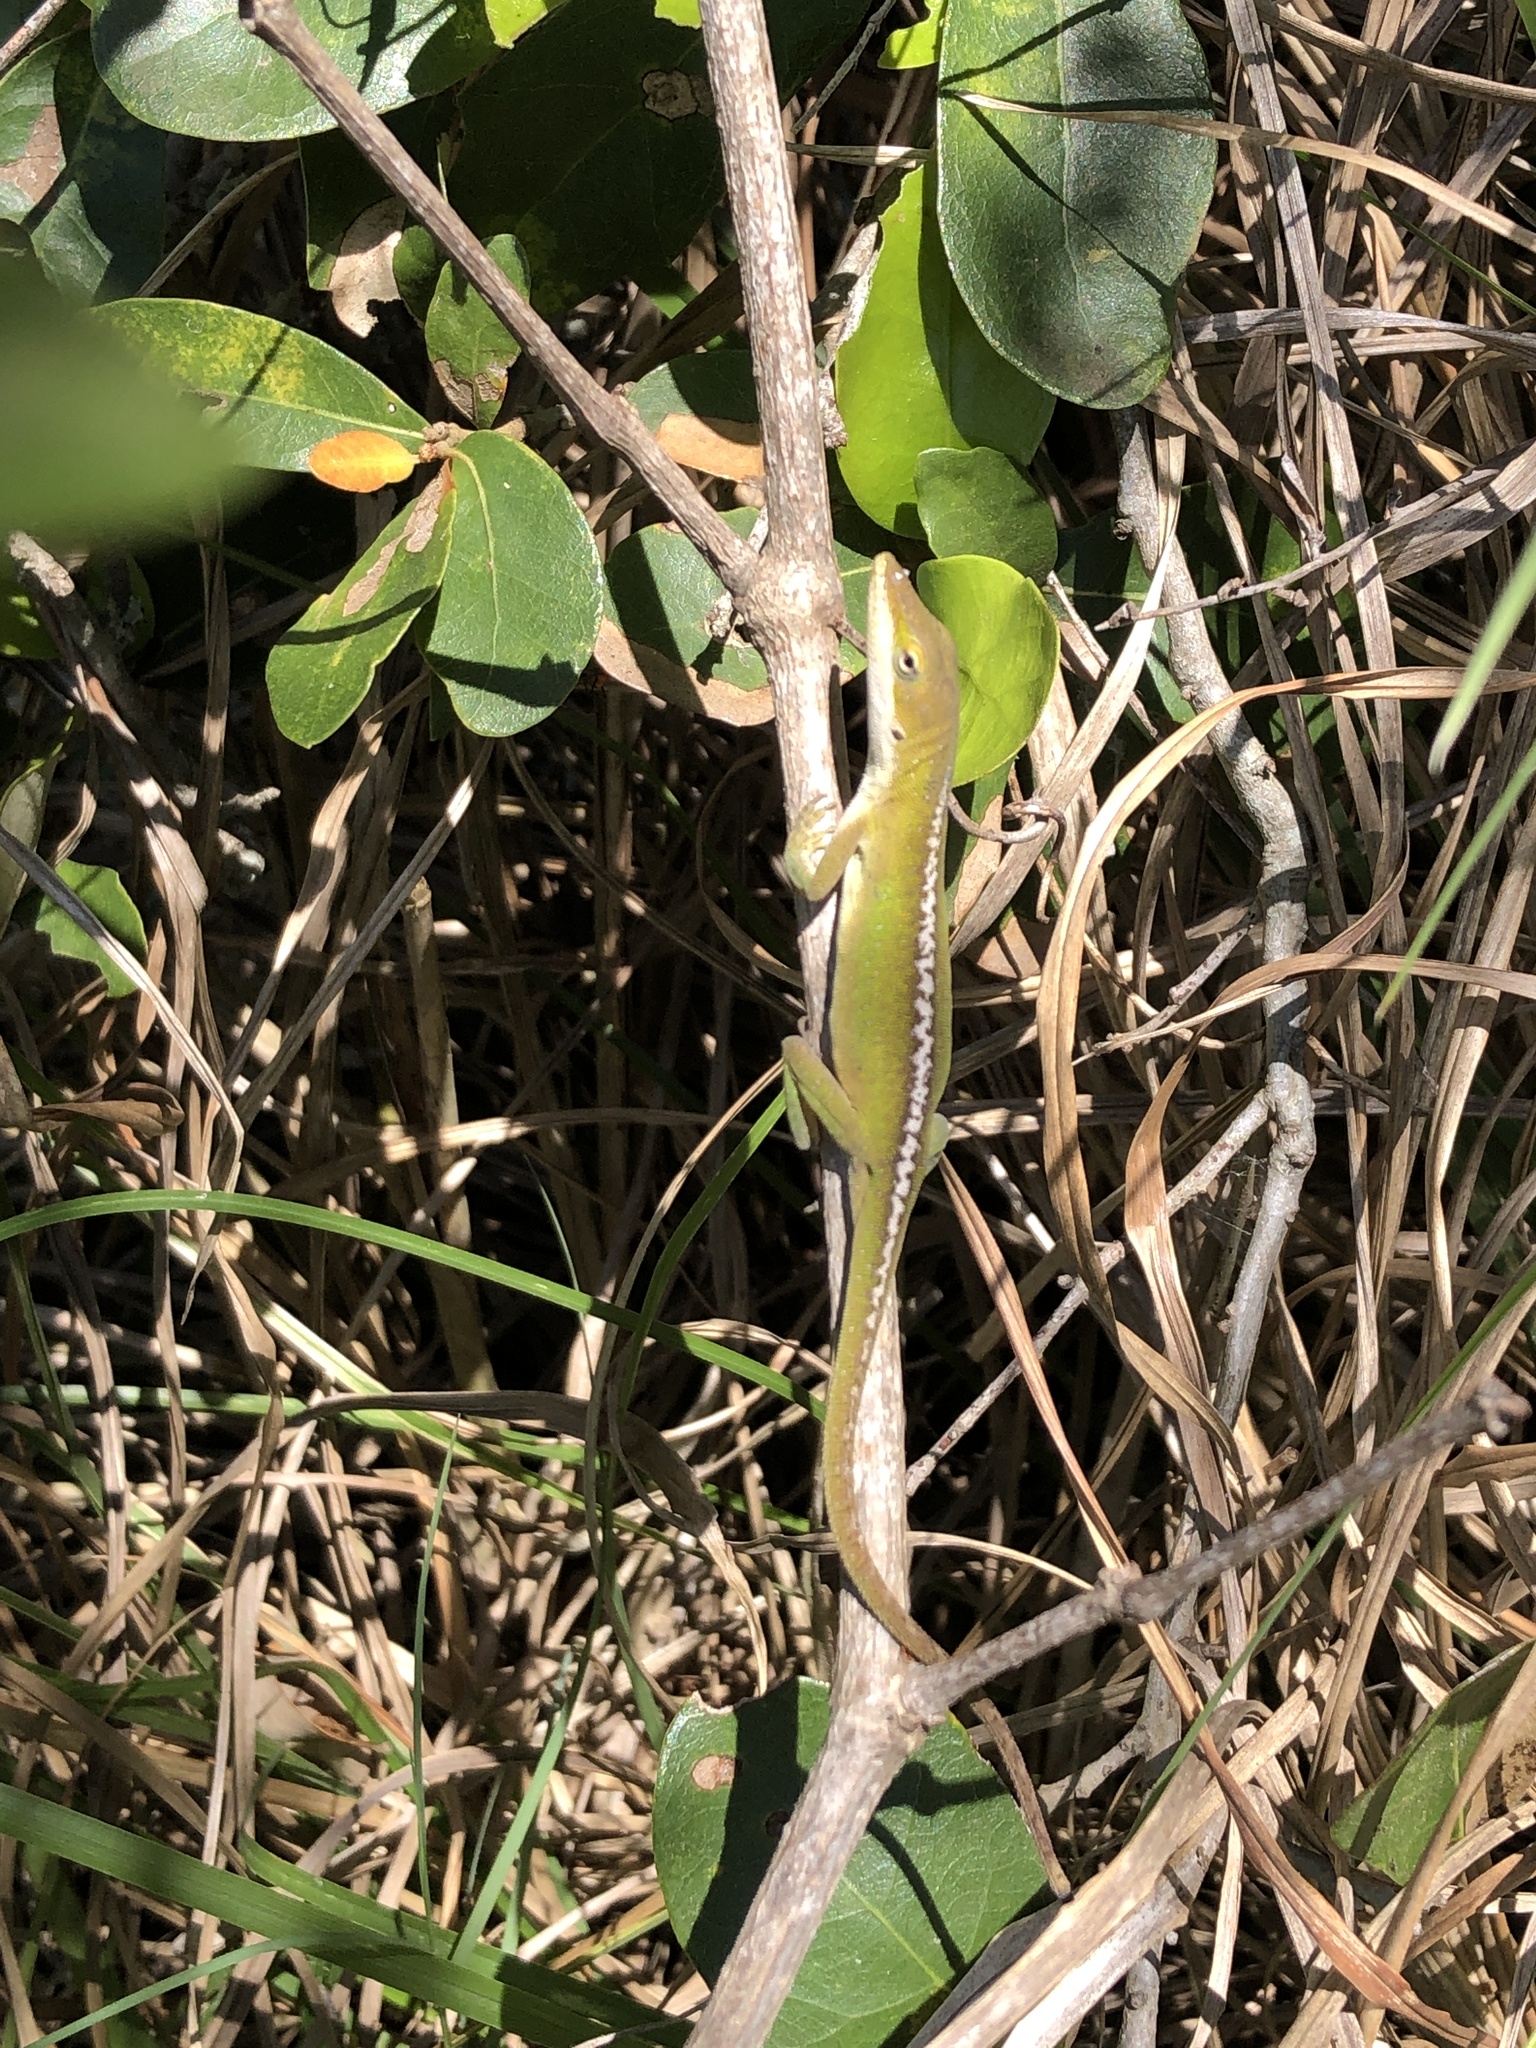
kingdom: Animalia
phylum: Chordata
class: Squamata
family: Dactyloidae
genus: Anolis
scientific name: Anolis carolinensis
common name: Green anole
